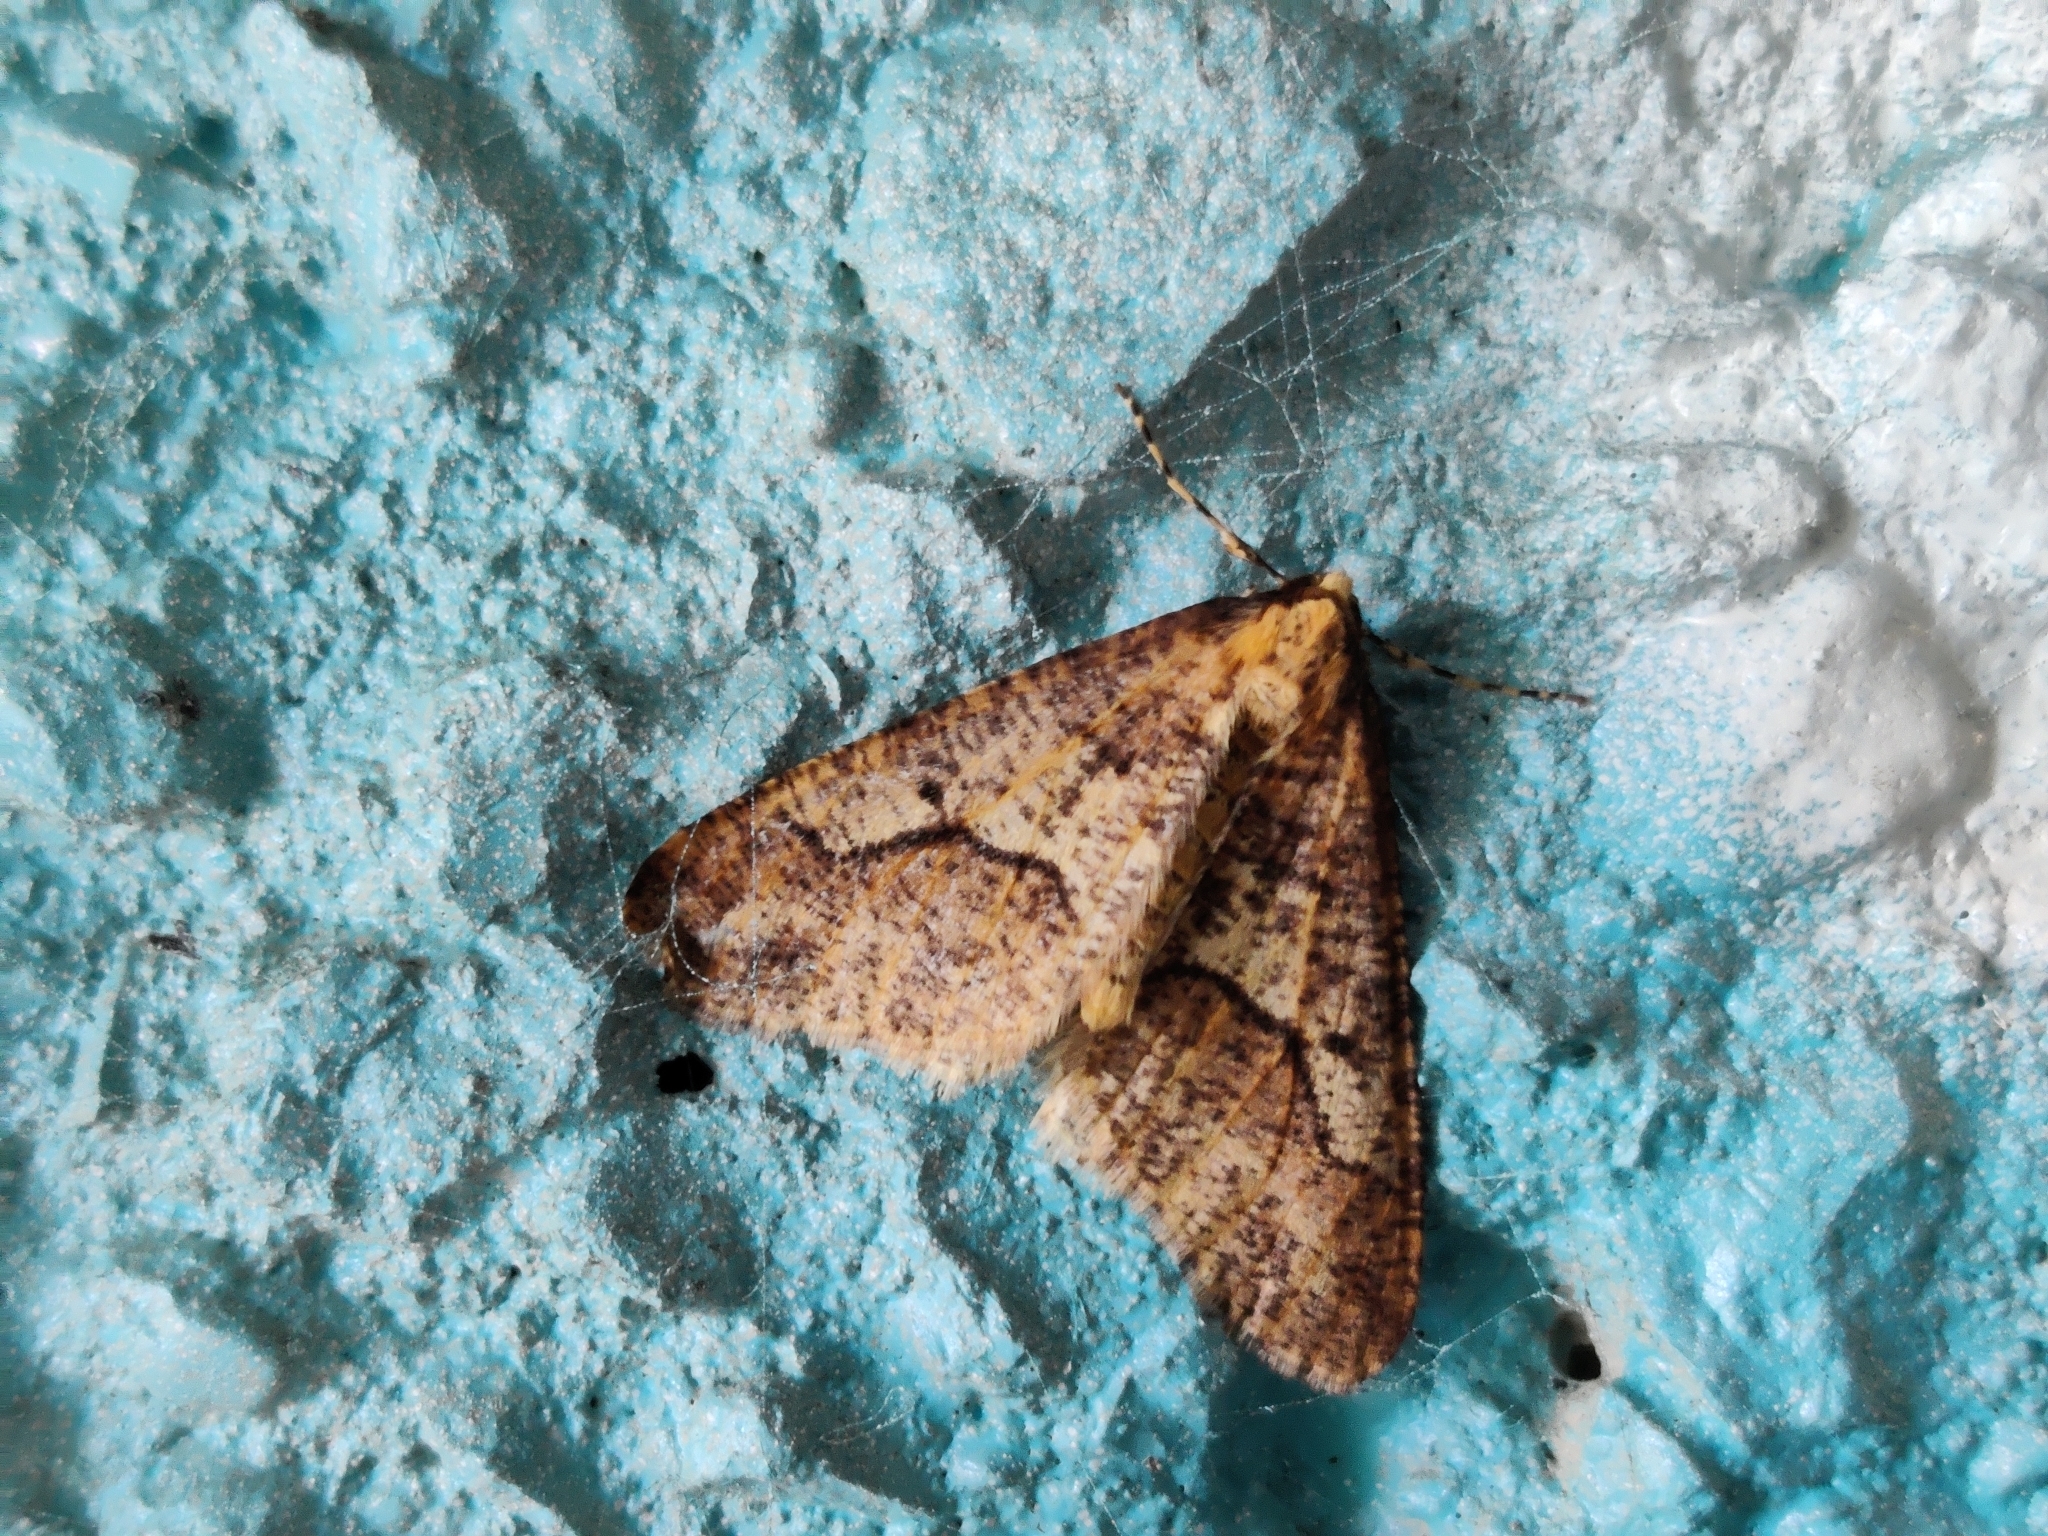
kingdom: Animalia
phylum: Arthropoda
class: Insecta
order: Lepidoptera
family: Geometridae
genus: Erannis
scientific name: Erannis defoliaria
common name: Mottled umber
